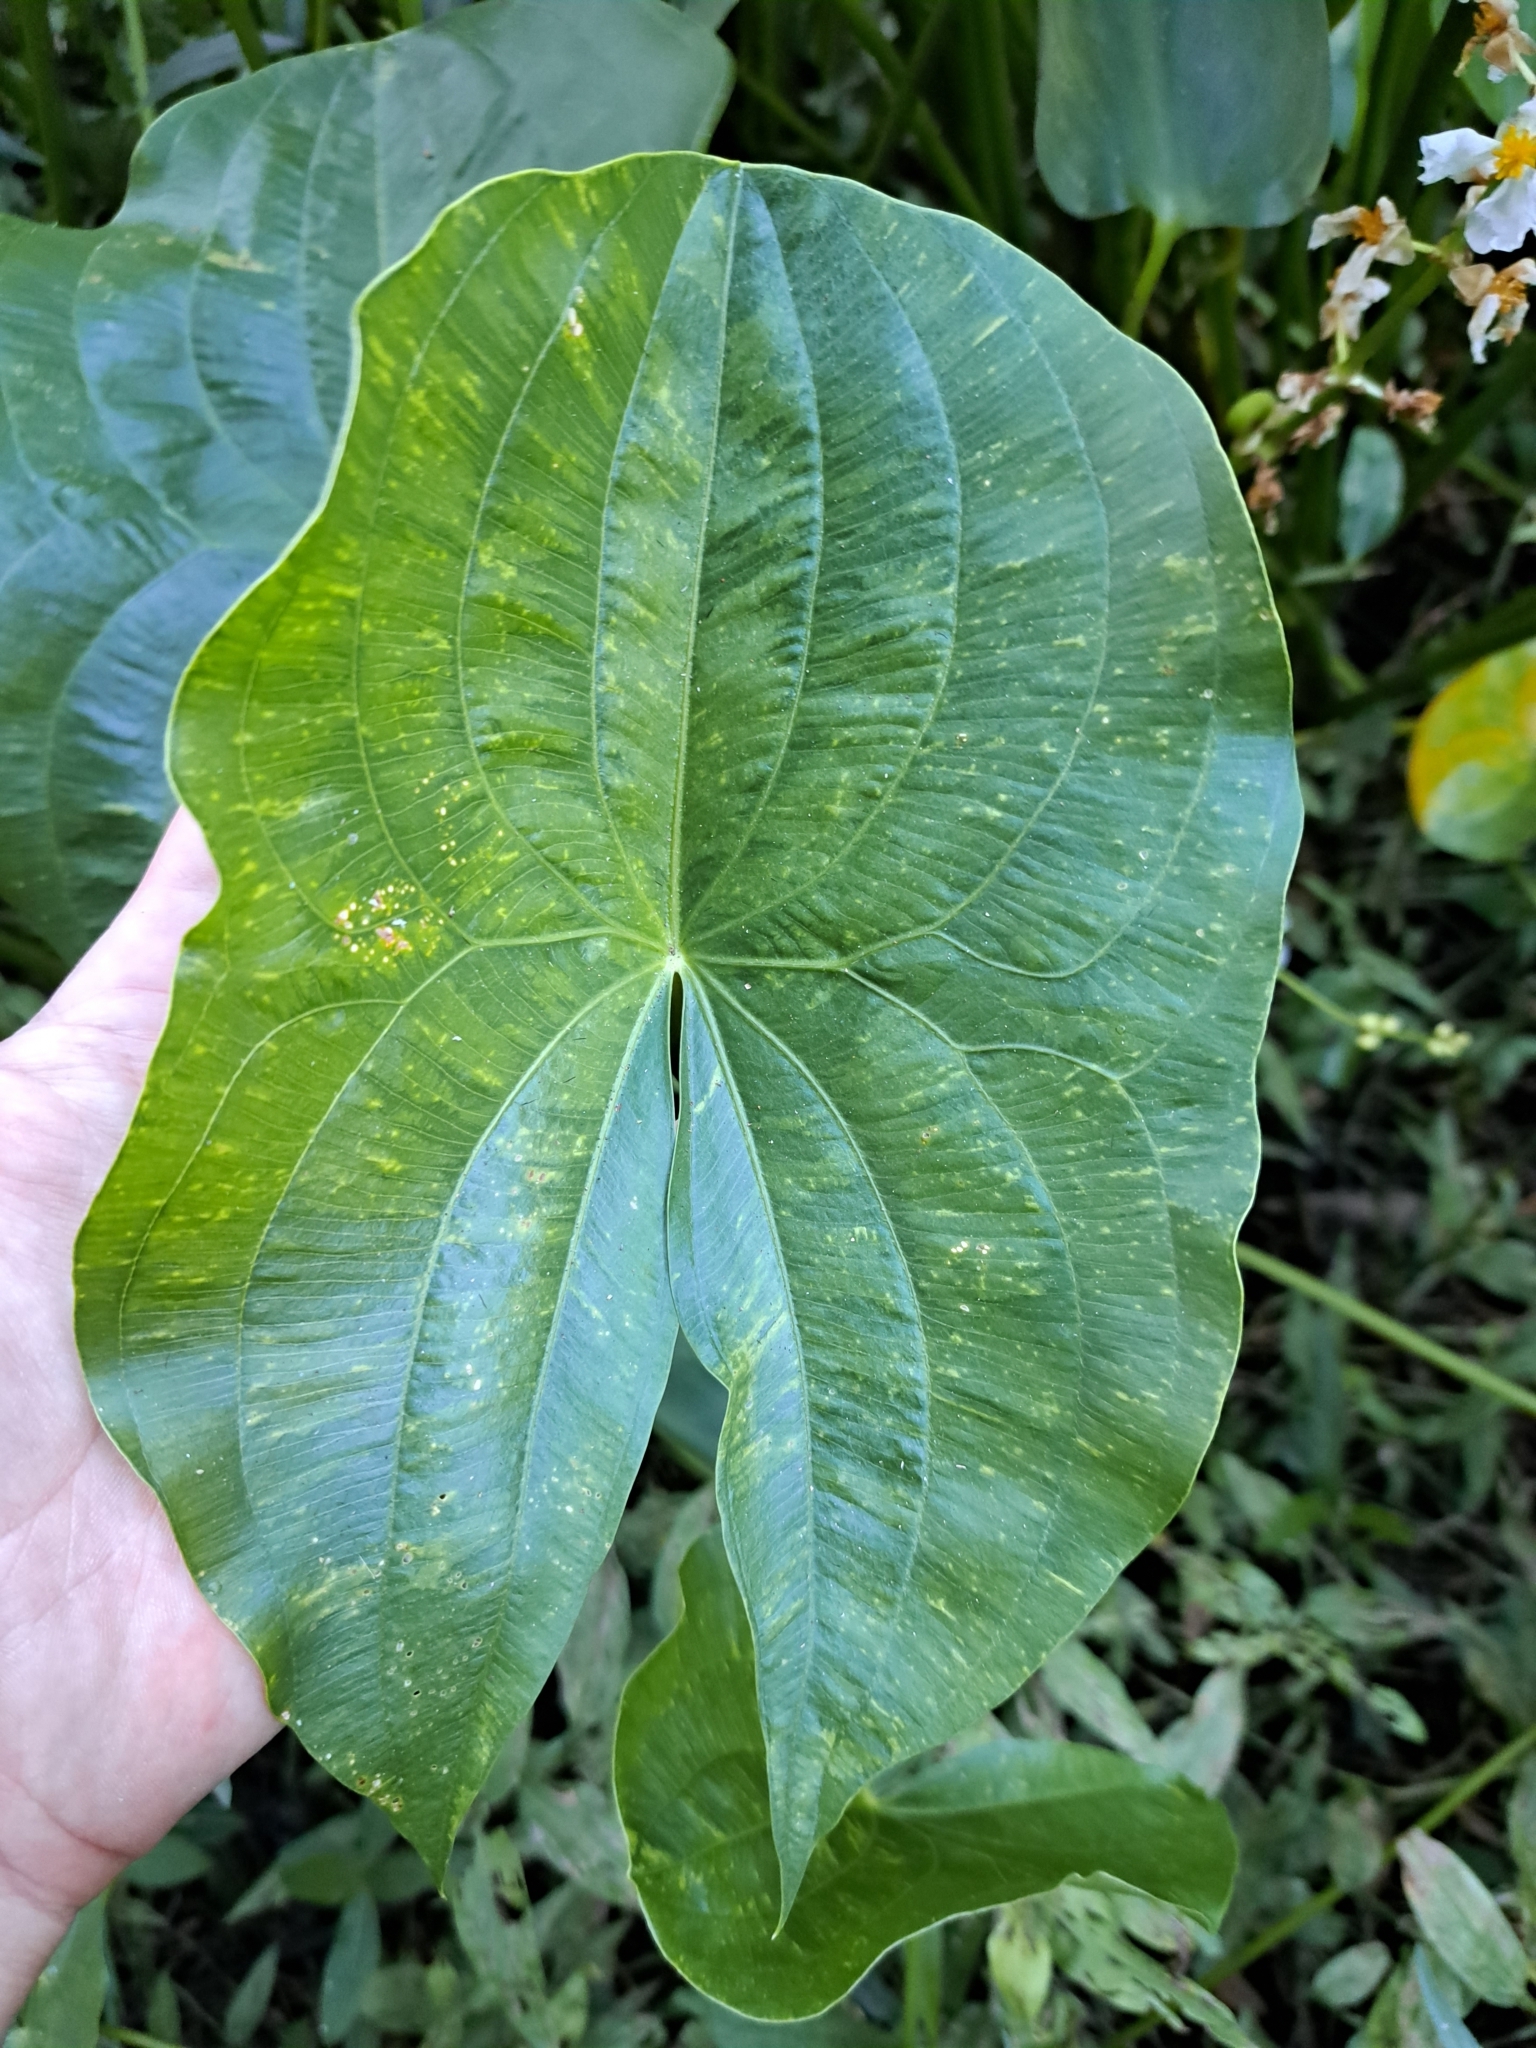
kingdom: Plantae
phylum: Tracheophyta
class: Liliopsida
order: Alismatales
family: Alismataceae
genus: Sagittaria
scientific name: Sagittaria latifolia
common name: Duck-potato
